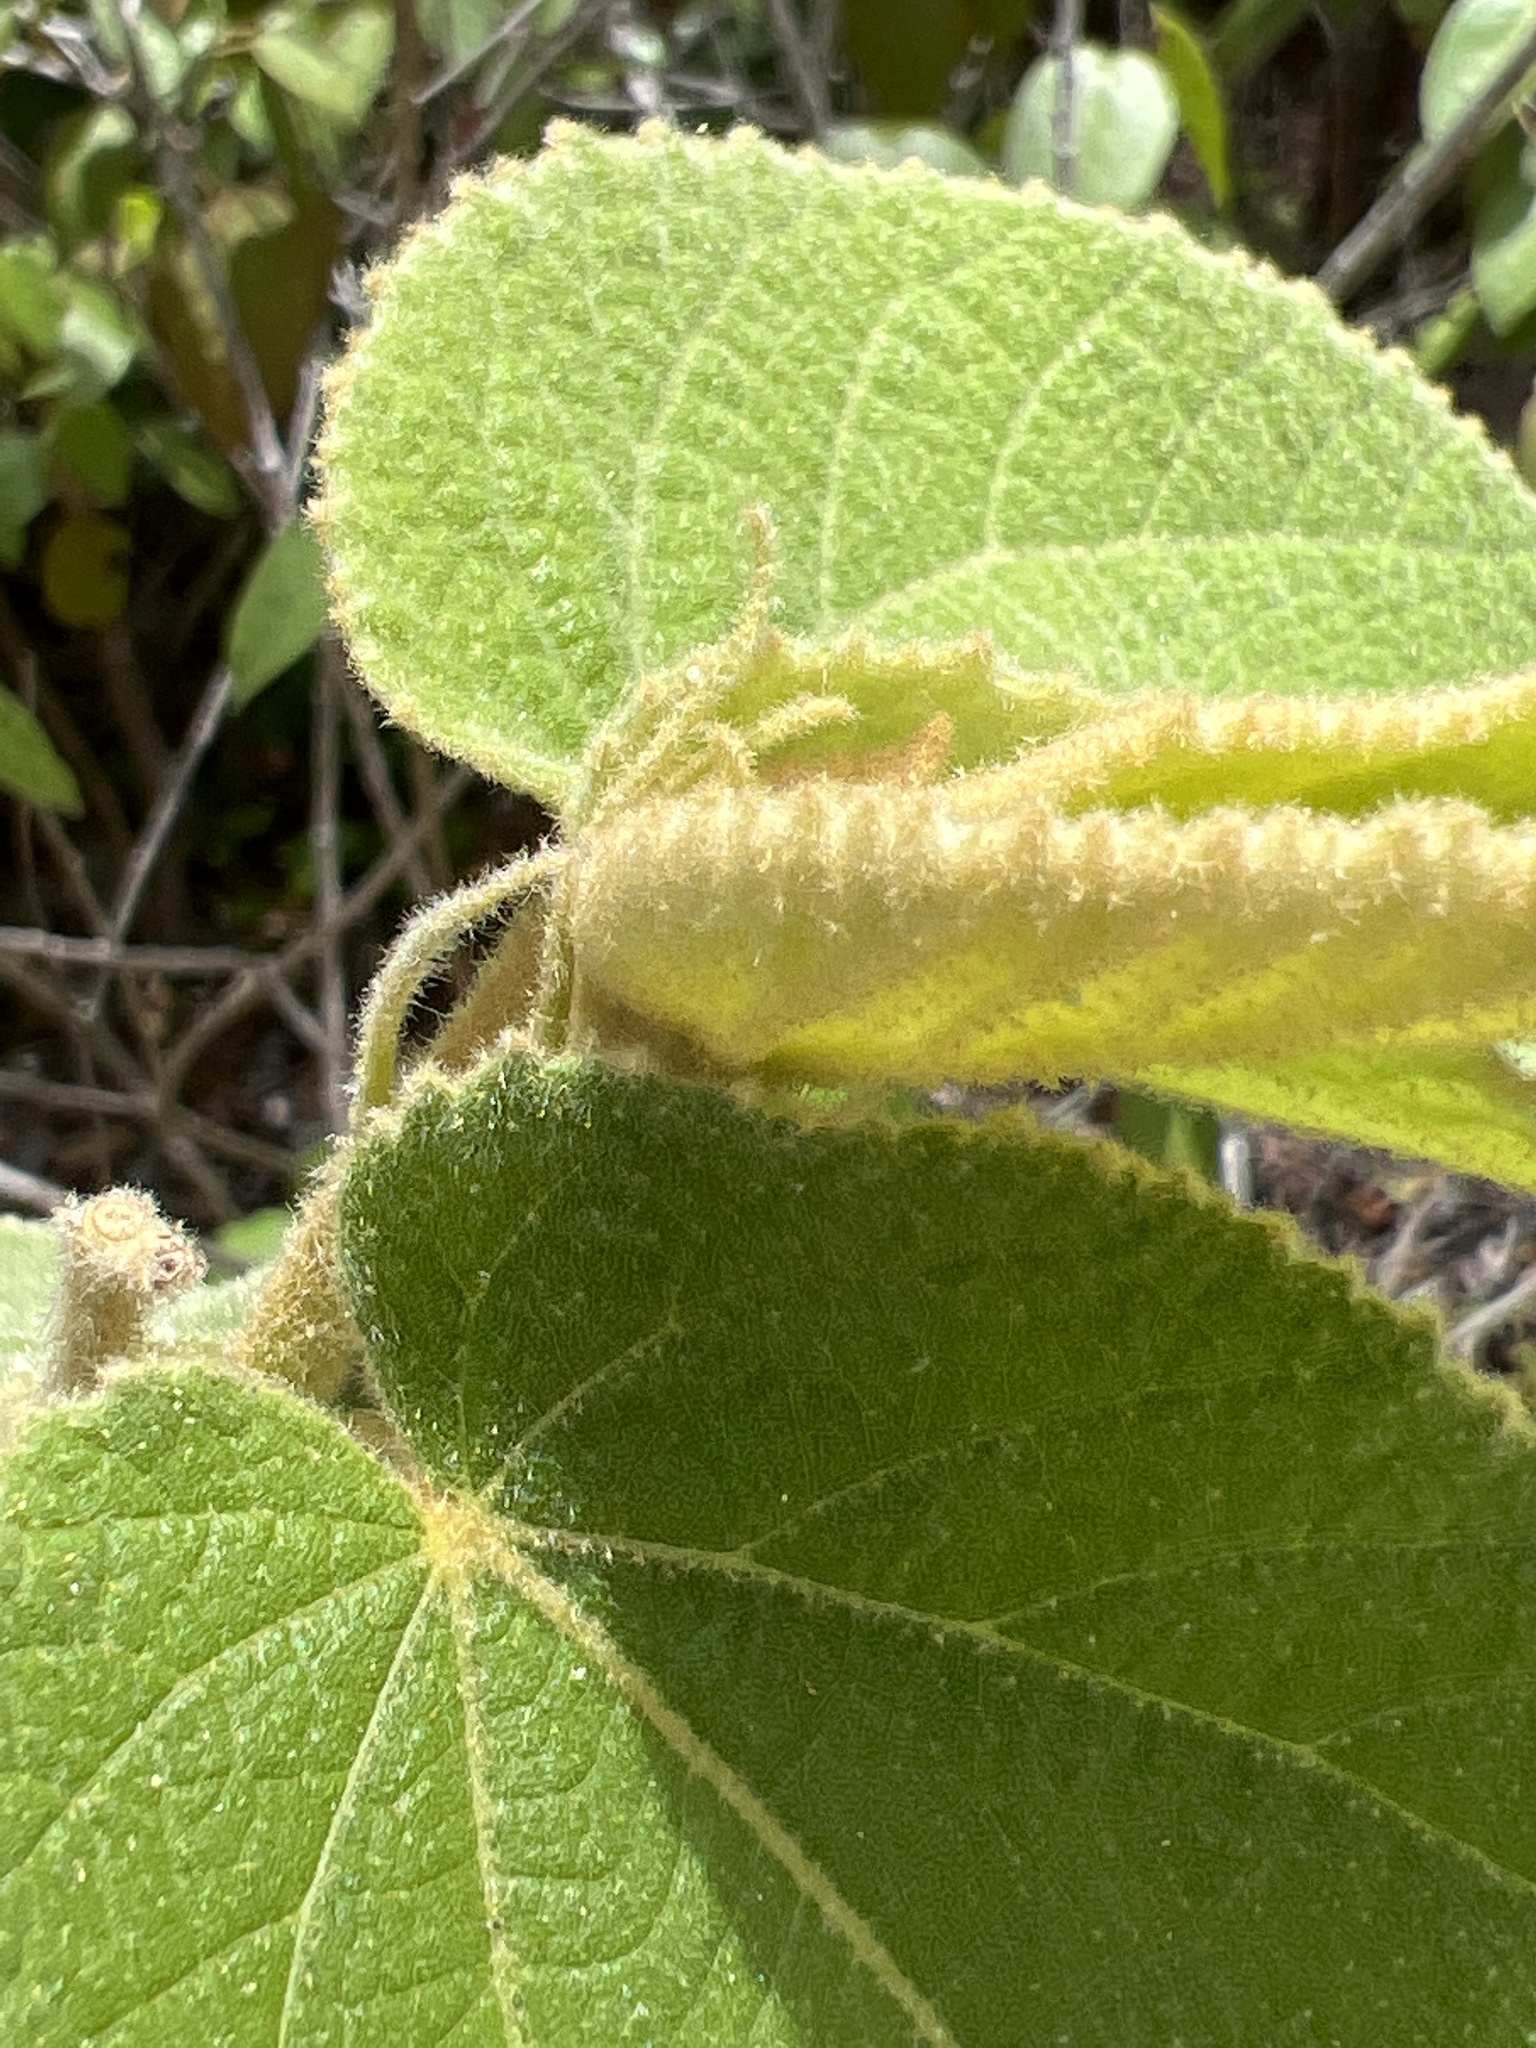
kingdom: Plantae
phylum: Tracheophyta
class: Magnoliopsida
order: Malvales
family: Malvaceae
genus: Helicteres
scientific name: Helicteres jamaicensis
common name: Cowbush
